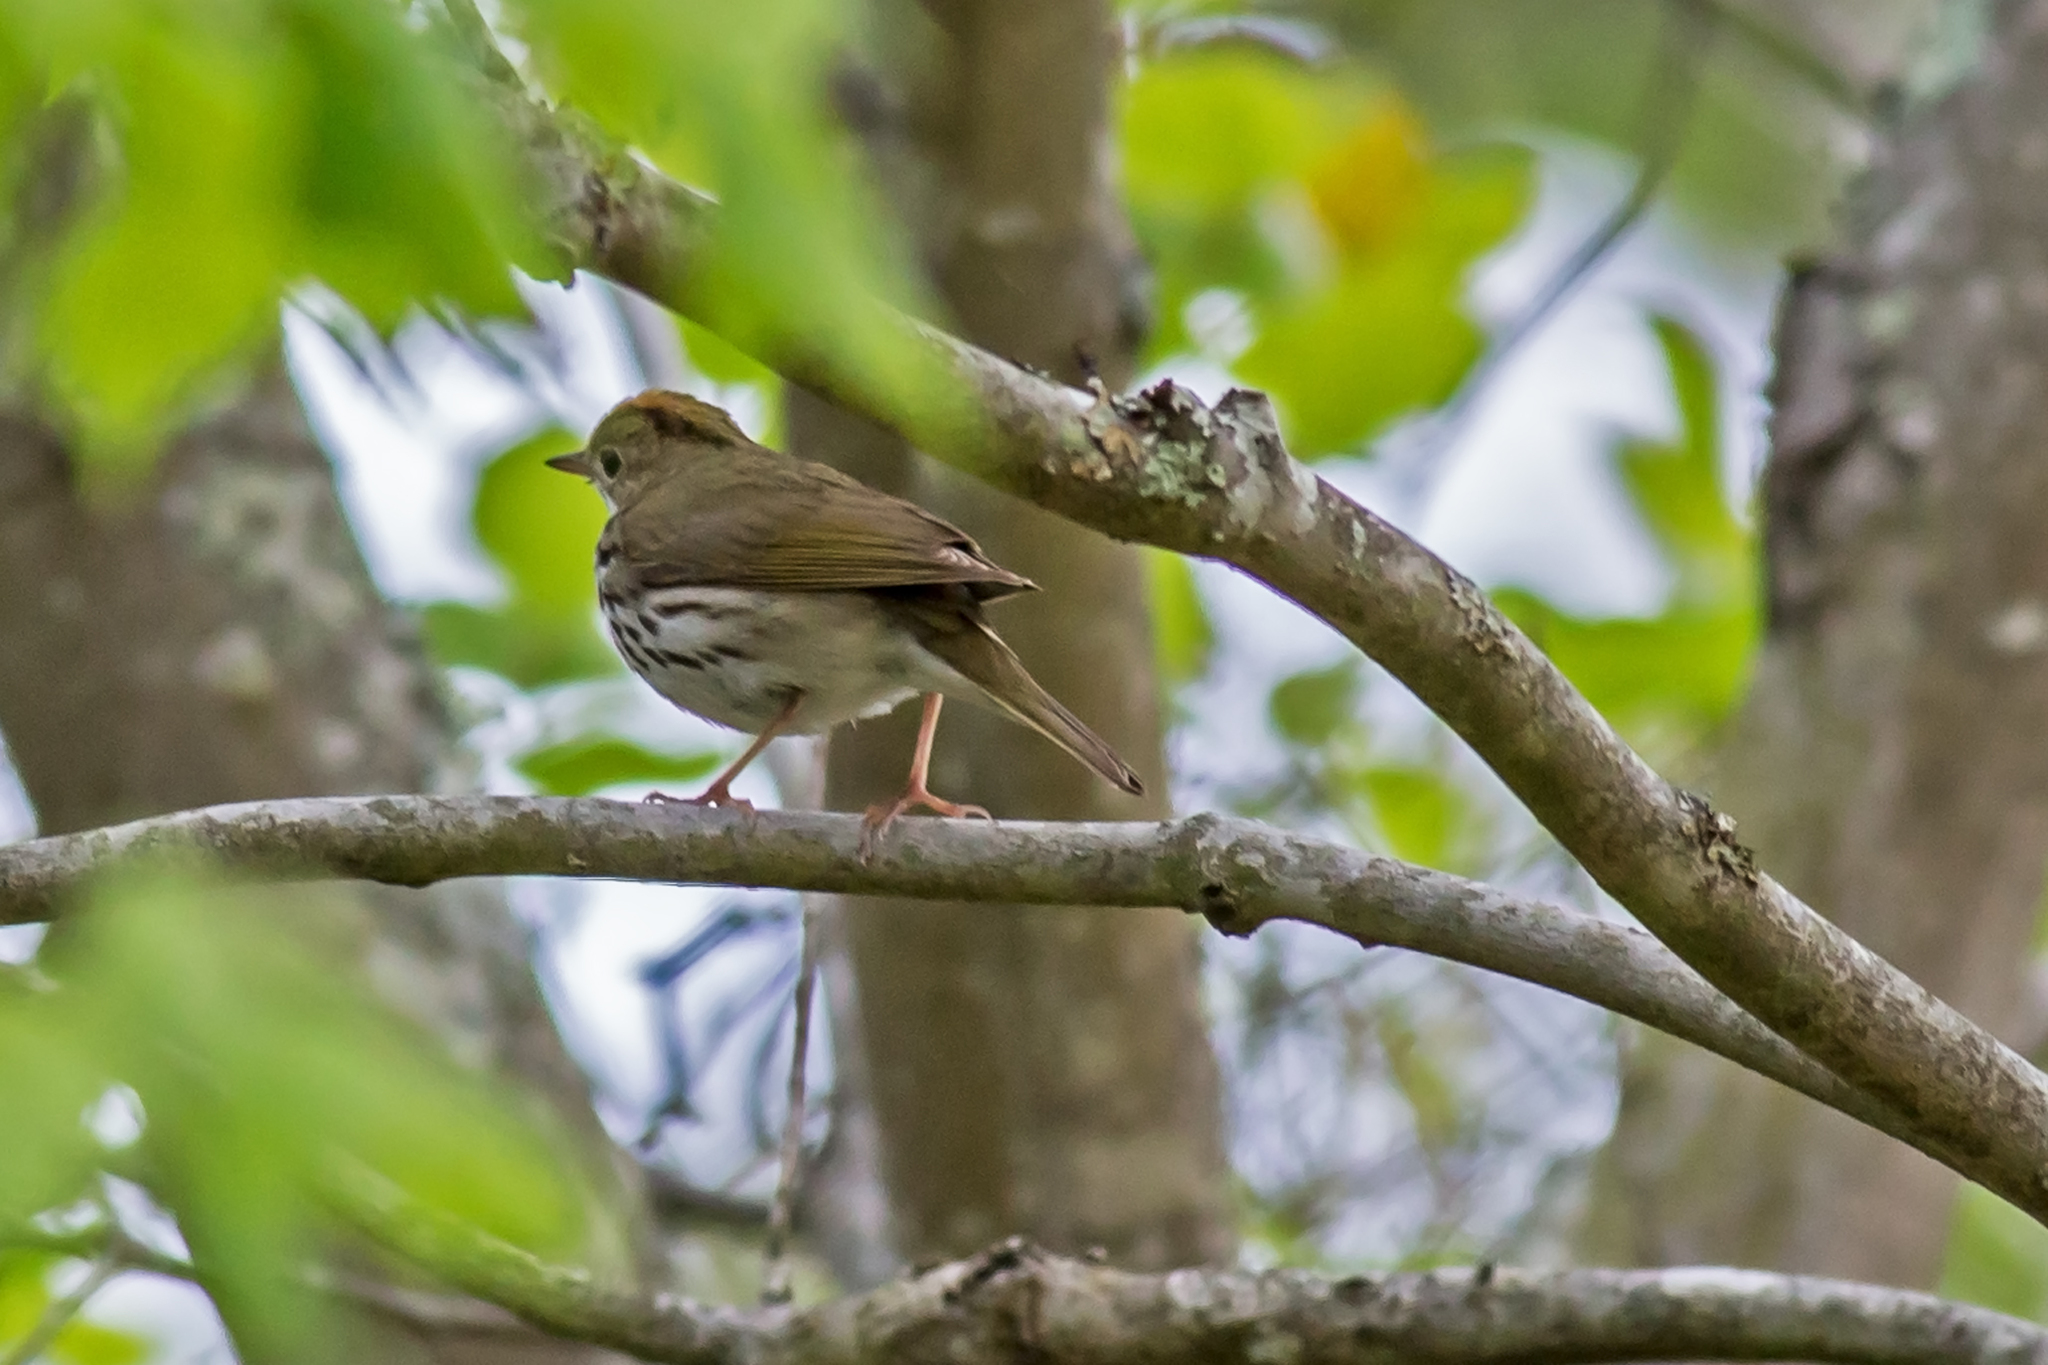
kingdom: Animalia
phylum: Chordata
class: Aves
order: Passeriformes
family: Parulidae
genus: Seiurus
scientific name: Seiurus aurocapilla
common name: Ovenbird
